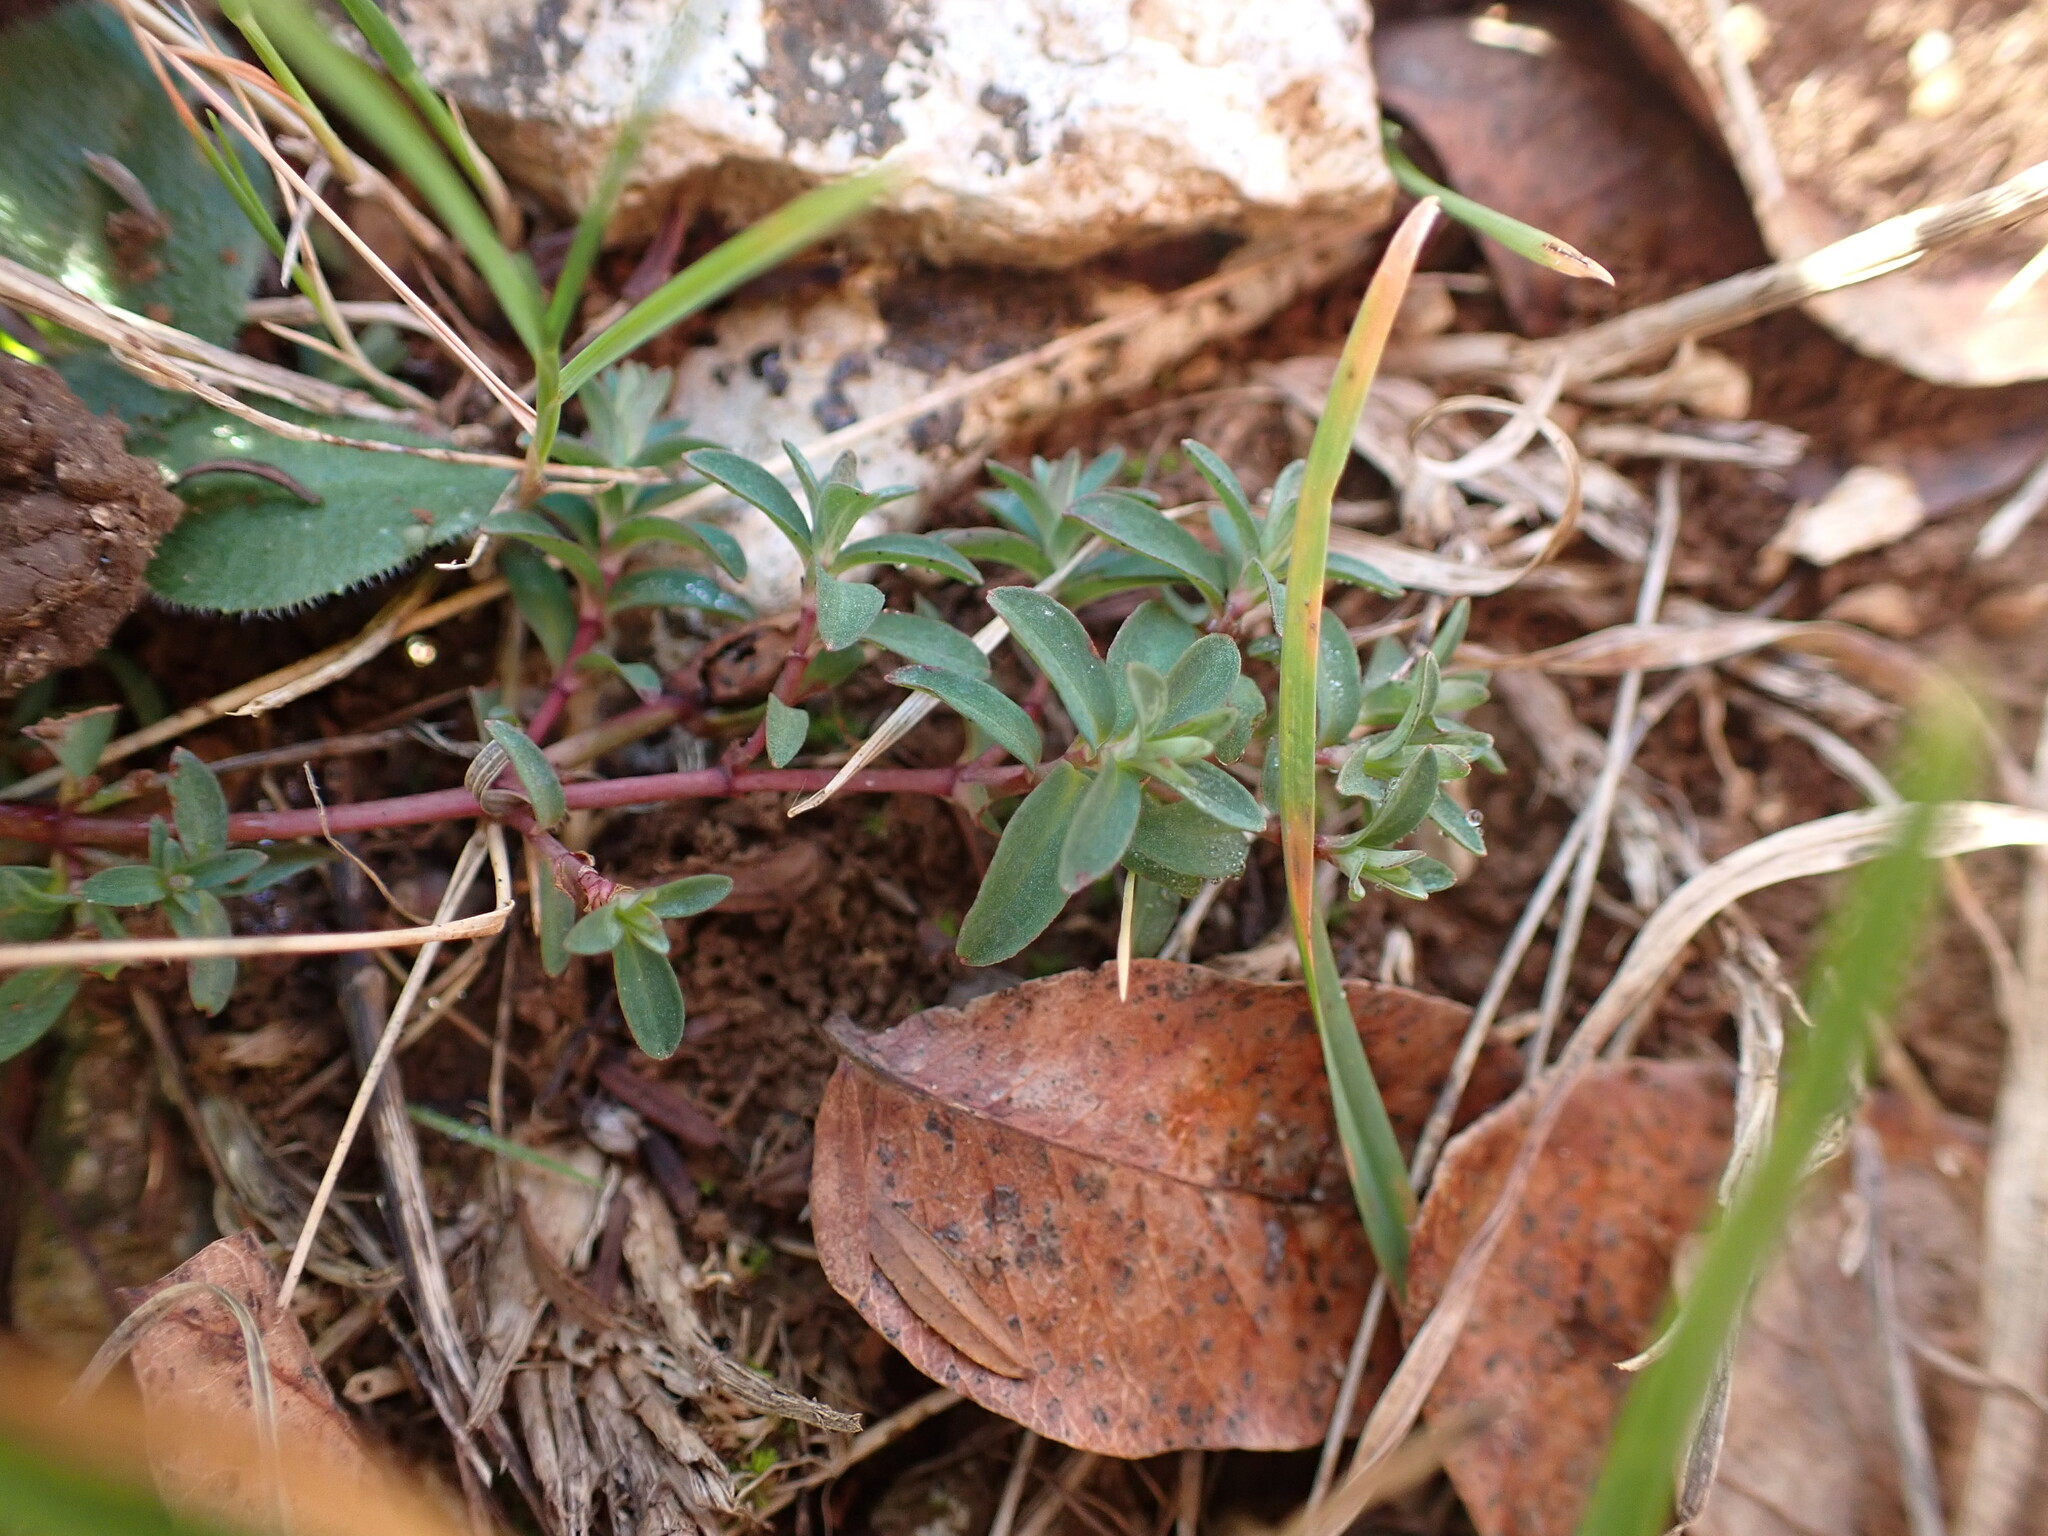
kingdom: Plantae
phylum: Tracheophyta
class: Magnoliopsida
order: Malpighiales
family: Hypericaceae
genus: Hypericum
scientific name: Hypericum perforatum
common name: Common st. johnswort
